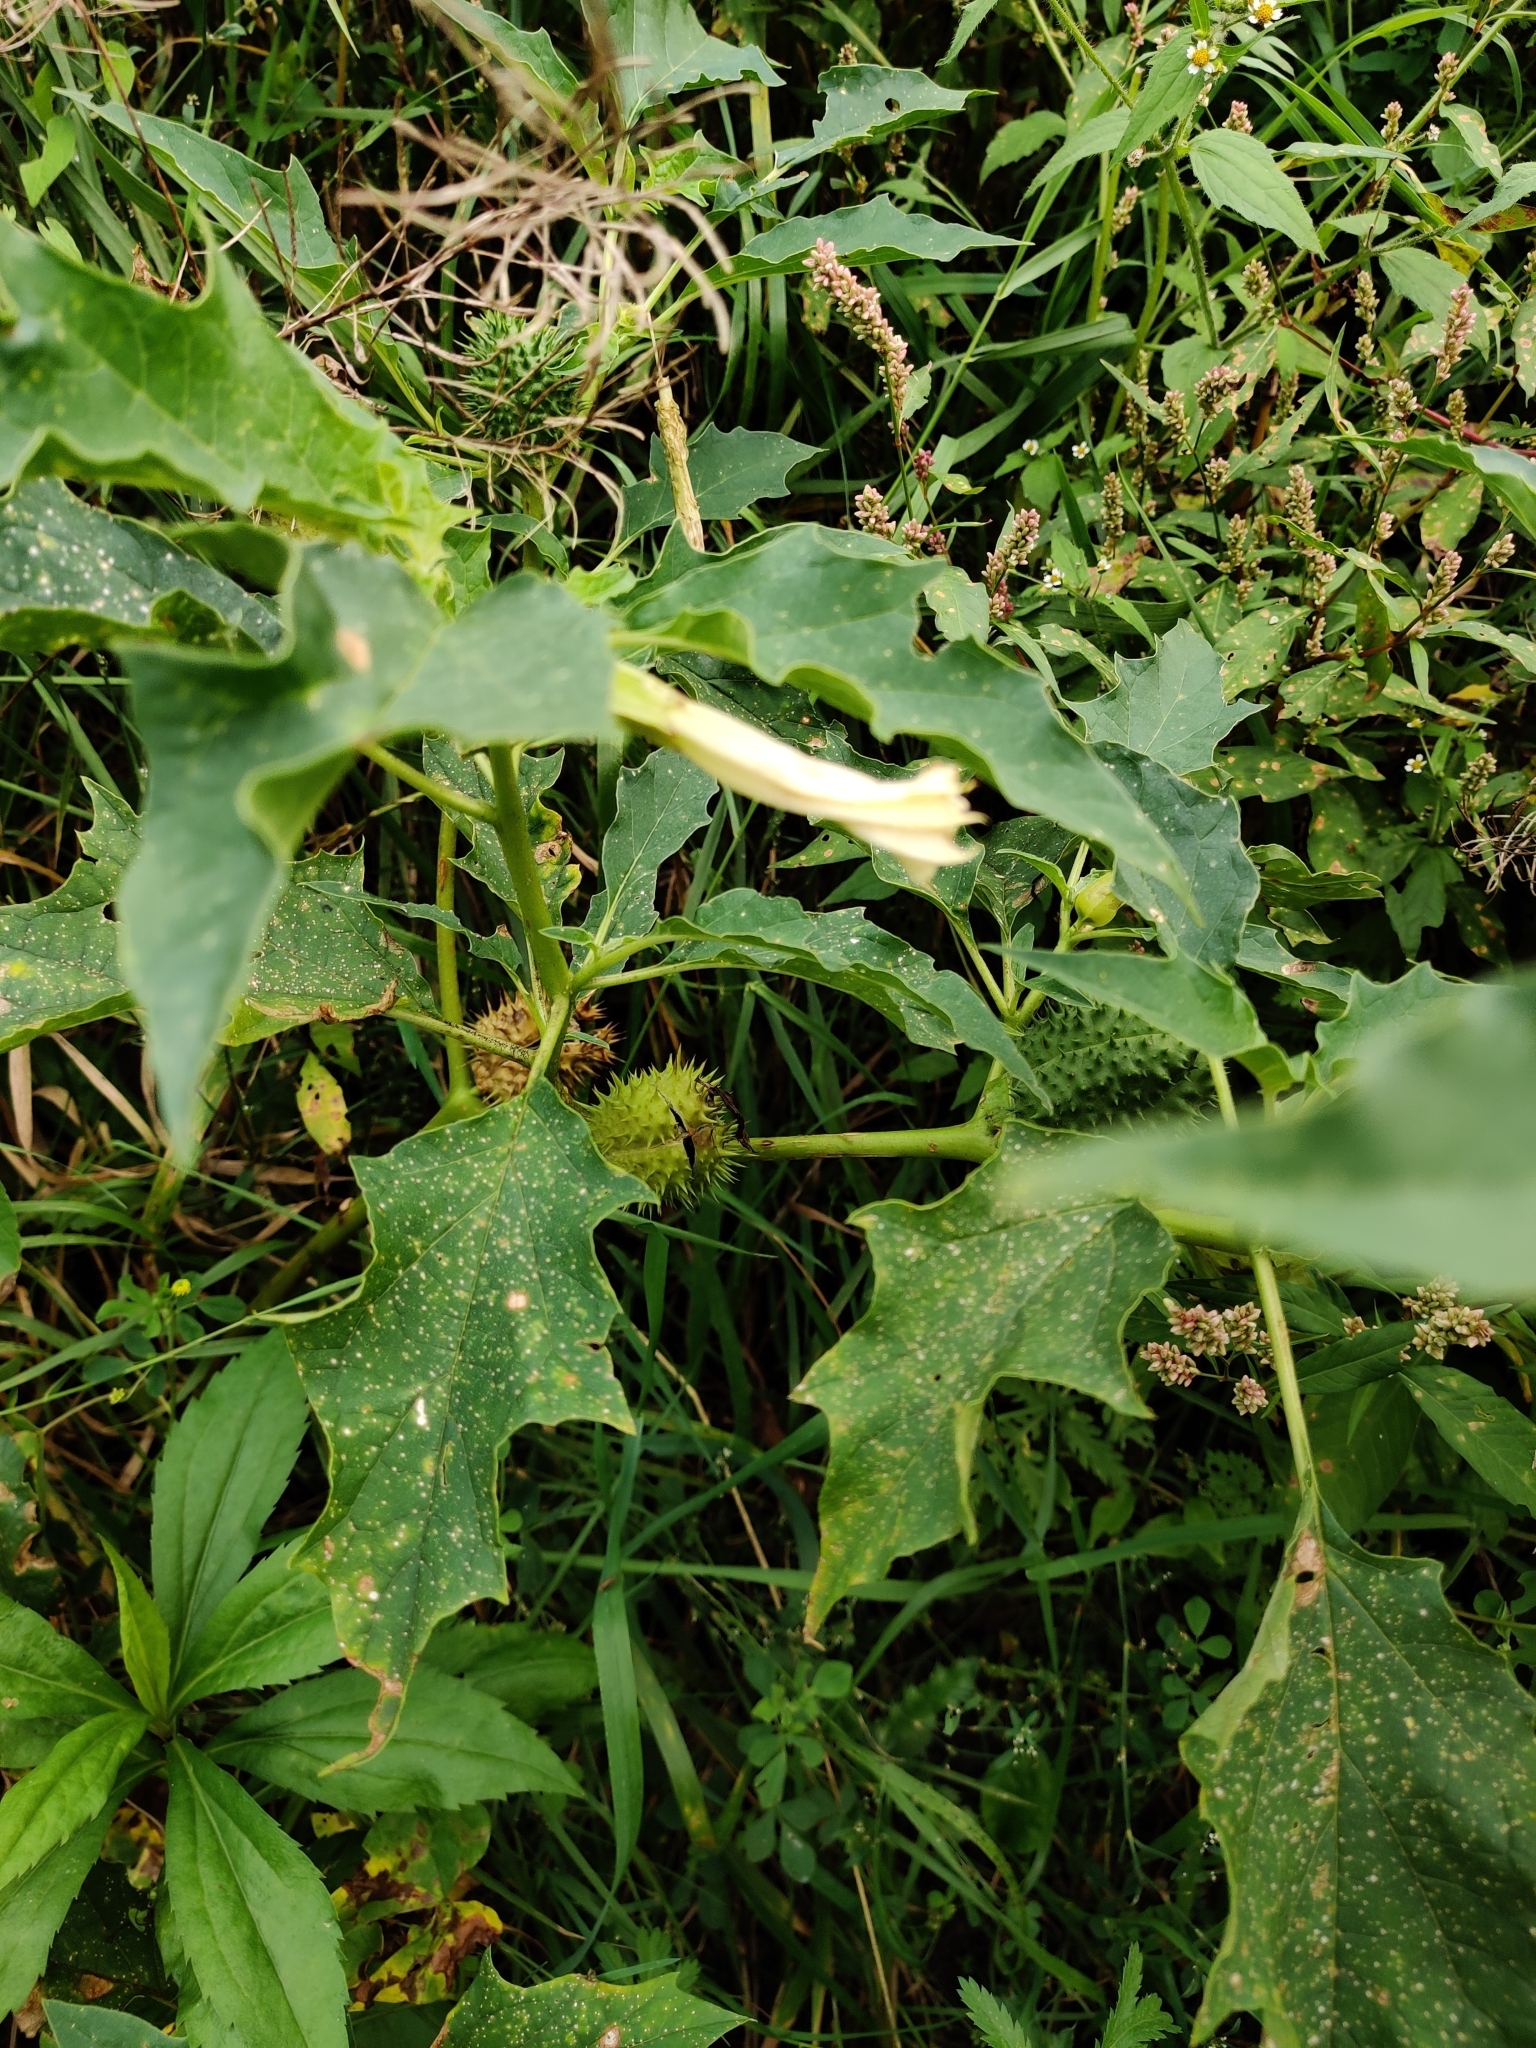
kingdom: Plantae
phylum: Tracheophyta
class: Magnoliopsida
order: Solanales
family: Solanaceae
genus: Datura
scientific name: Datura stramonium
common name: Thorn-apple
